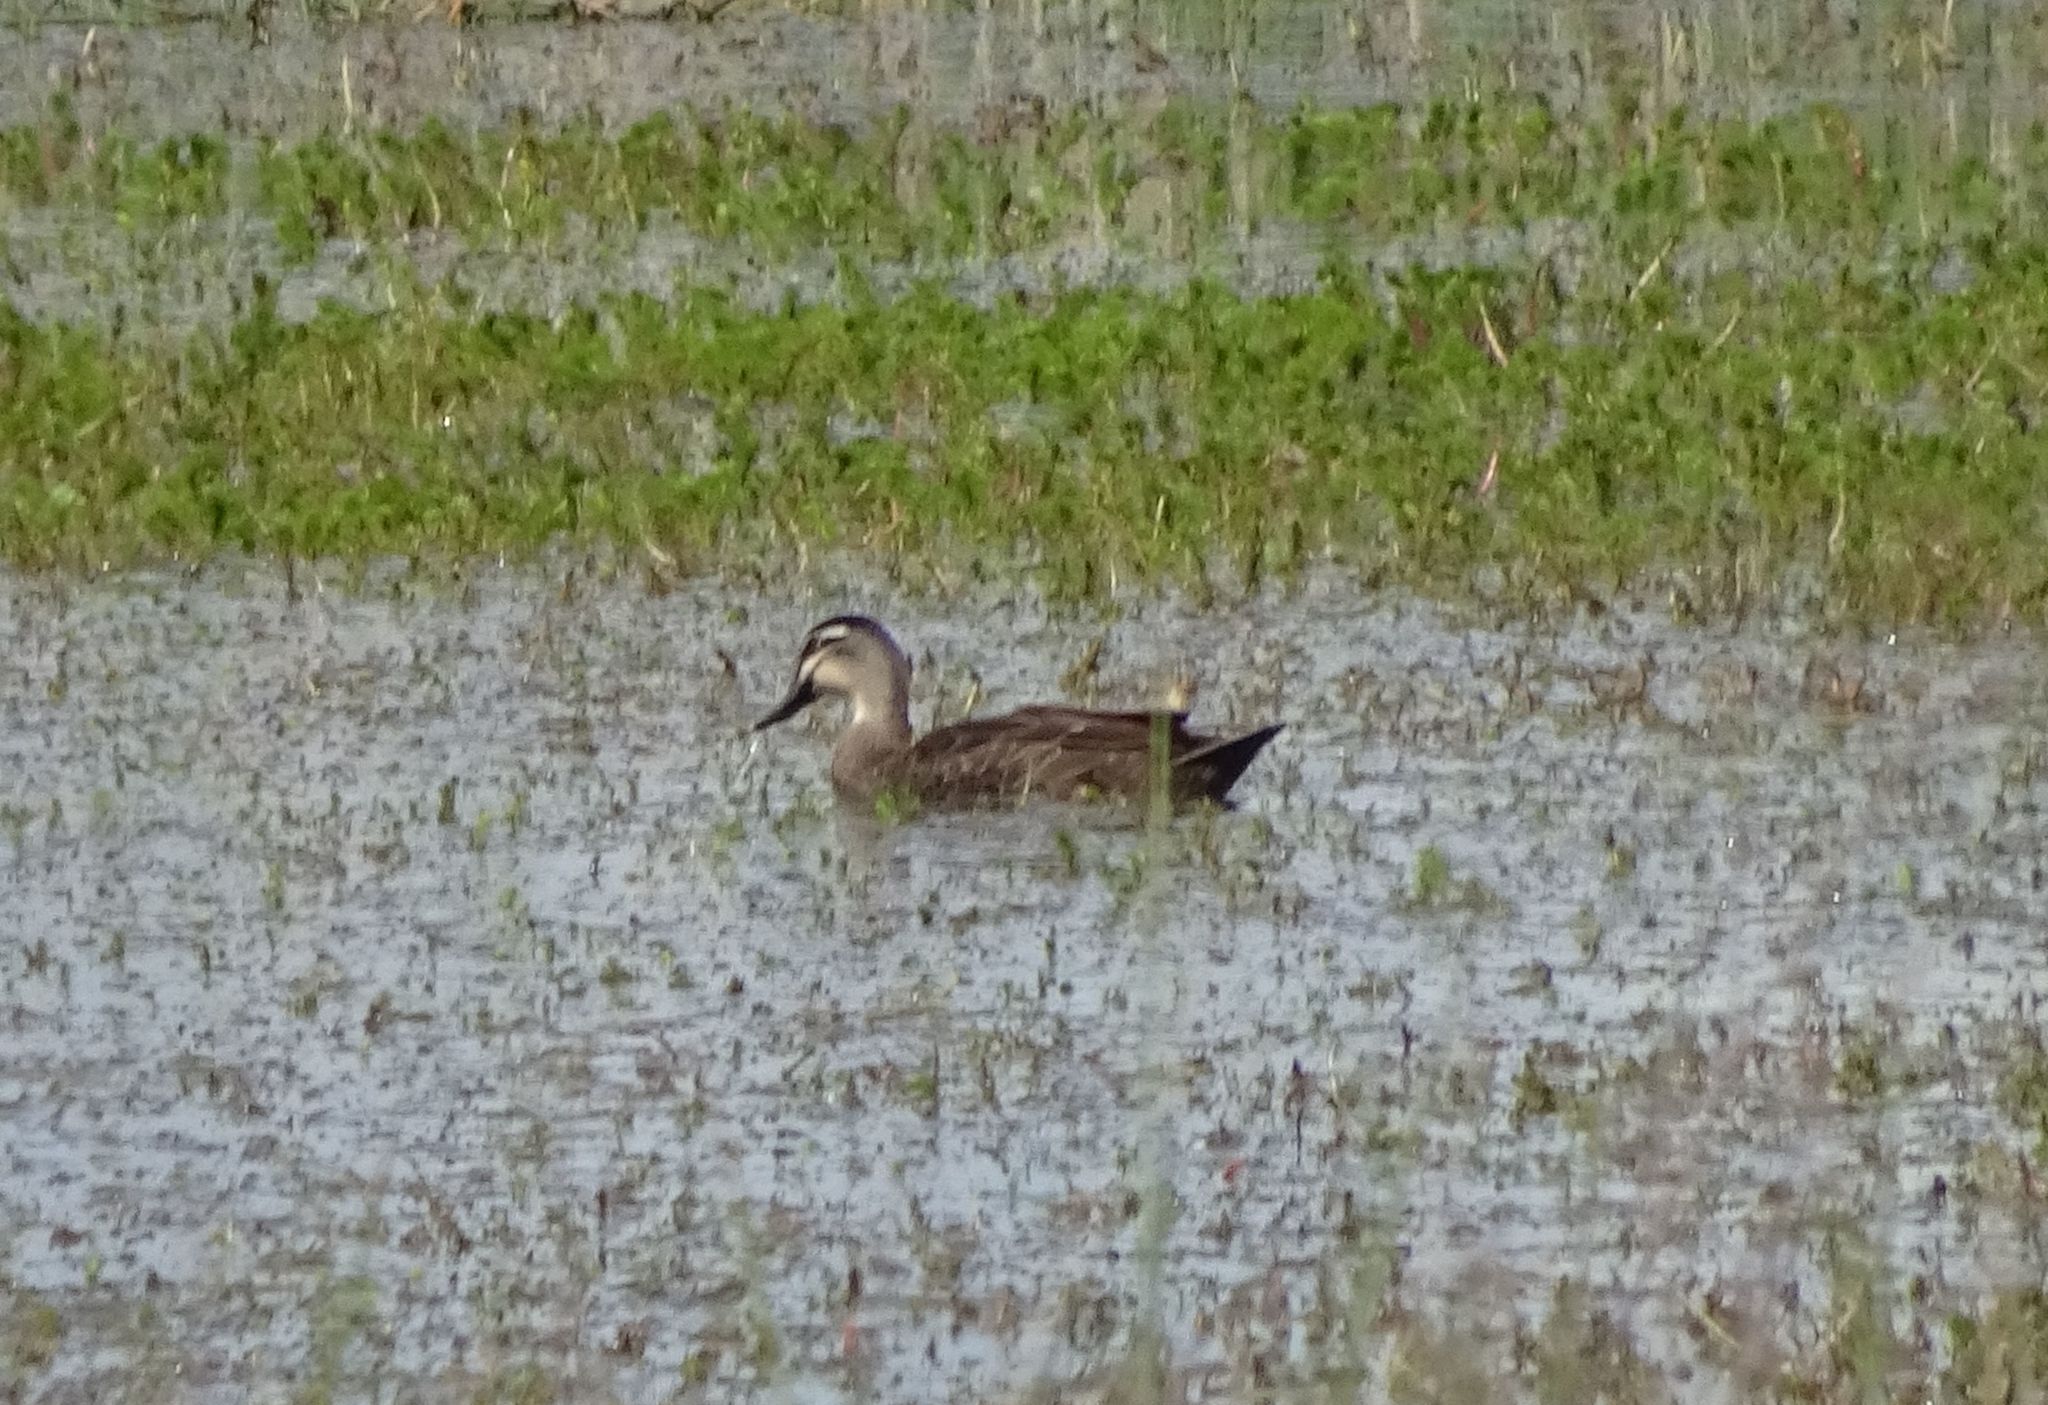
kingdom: Animalia
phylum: Chordata
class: Aves
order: Anseriformes
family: Anatidae
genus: Anas
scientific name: Anas superciliosa
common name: Pacific black duck
